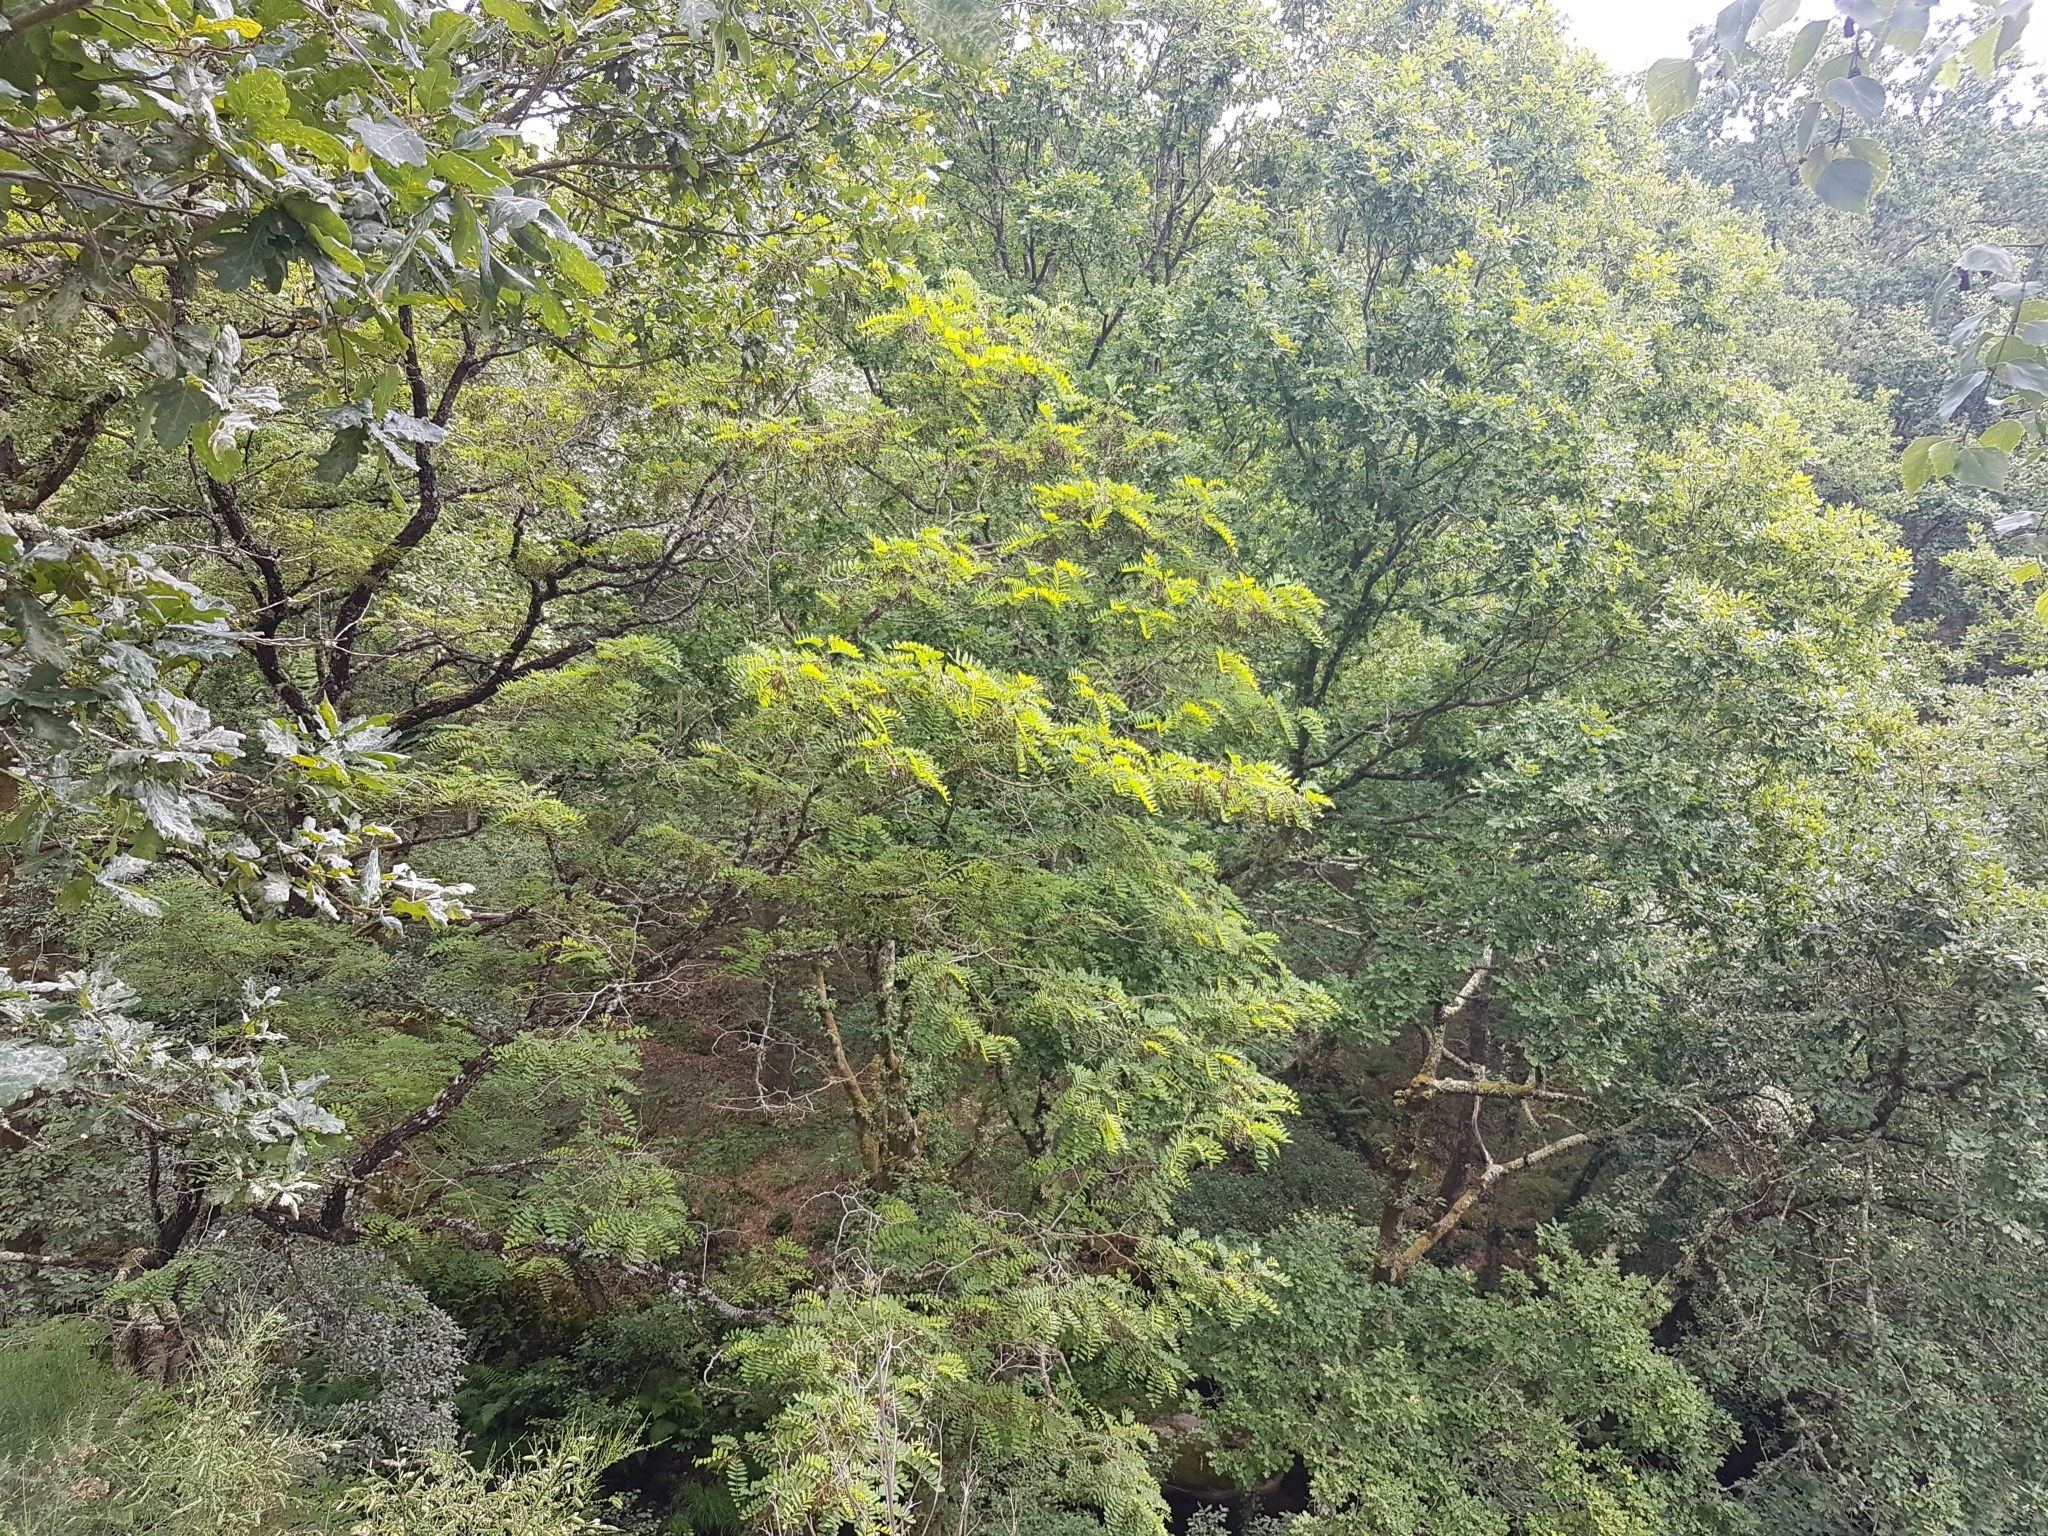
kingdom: Plantae
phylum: Tracheophyta
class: Magnoliopsida
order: Fabales
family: Fabaceae
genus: Robinia
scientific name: Robinia pseudoacacia
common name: Black locust
